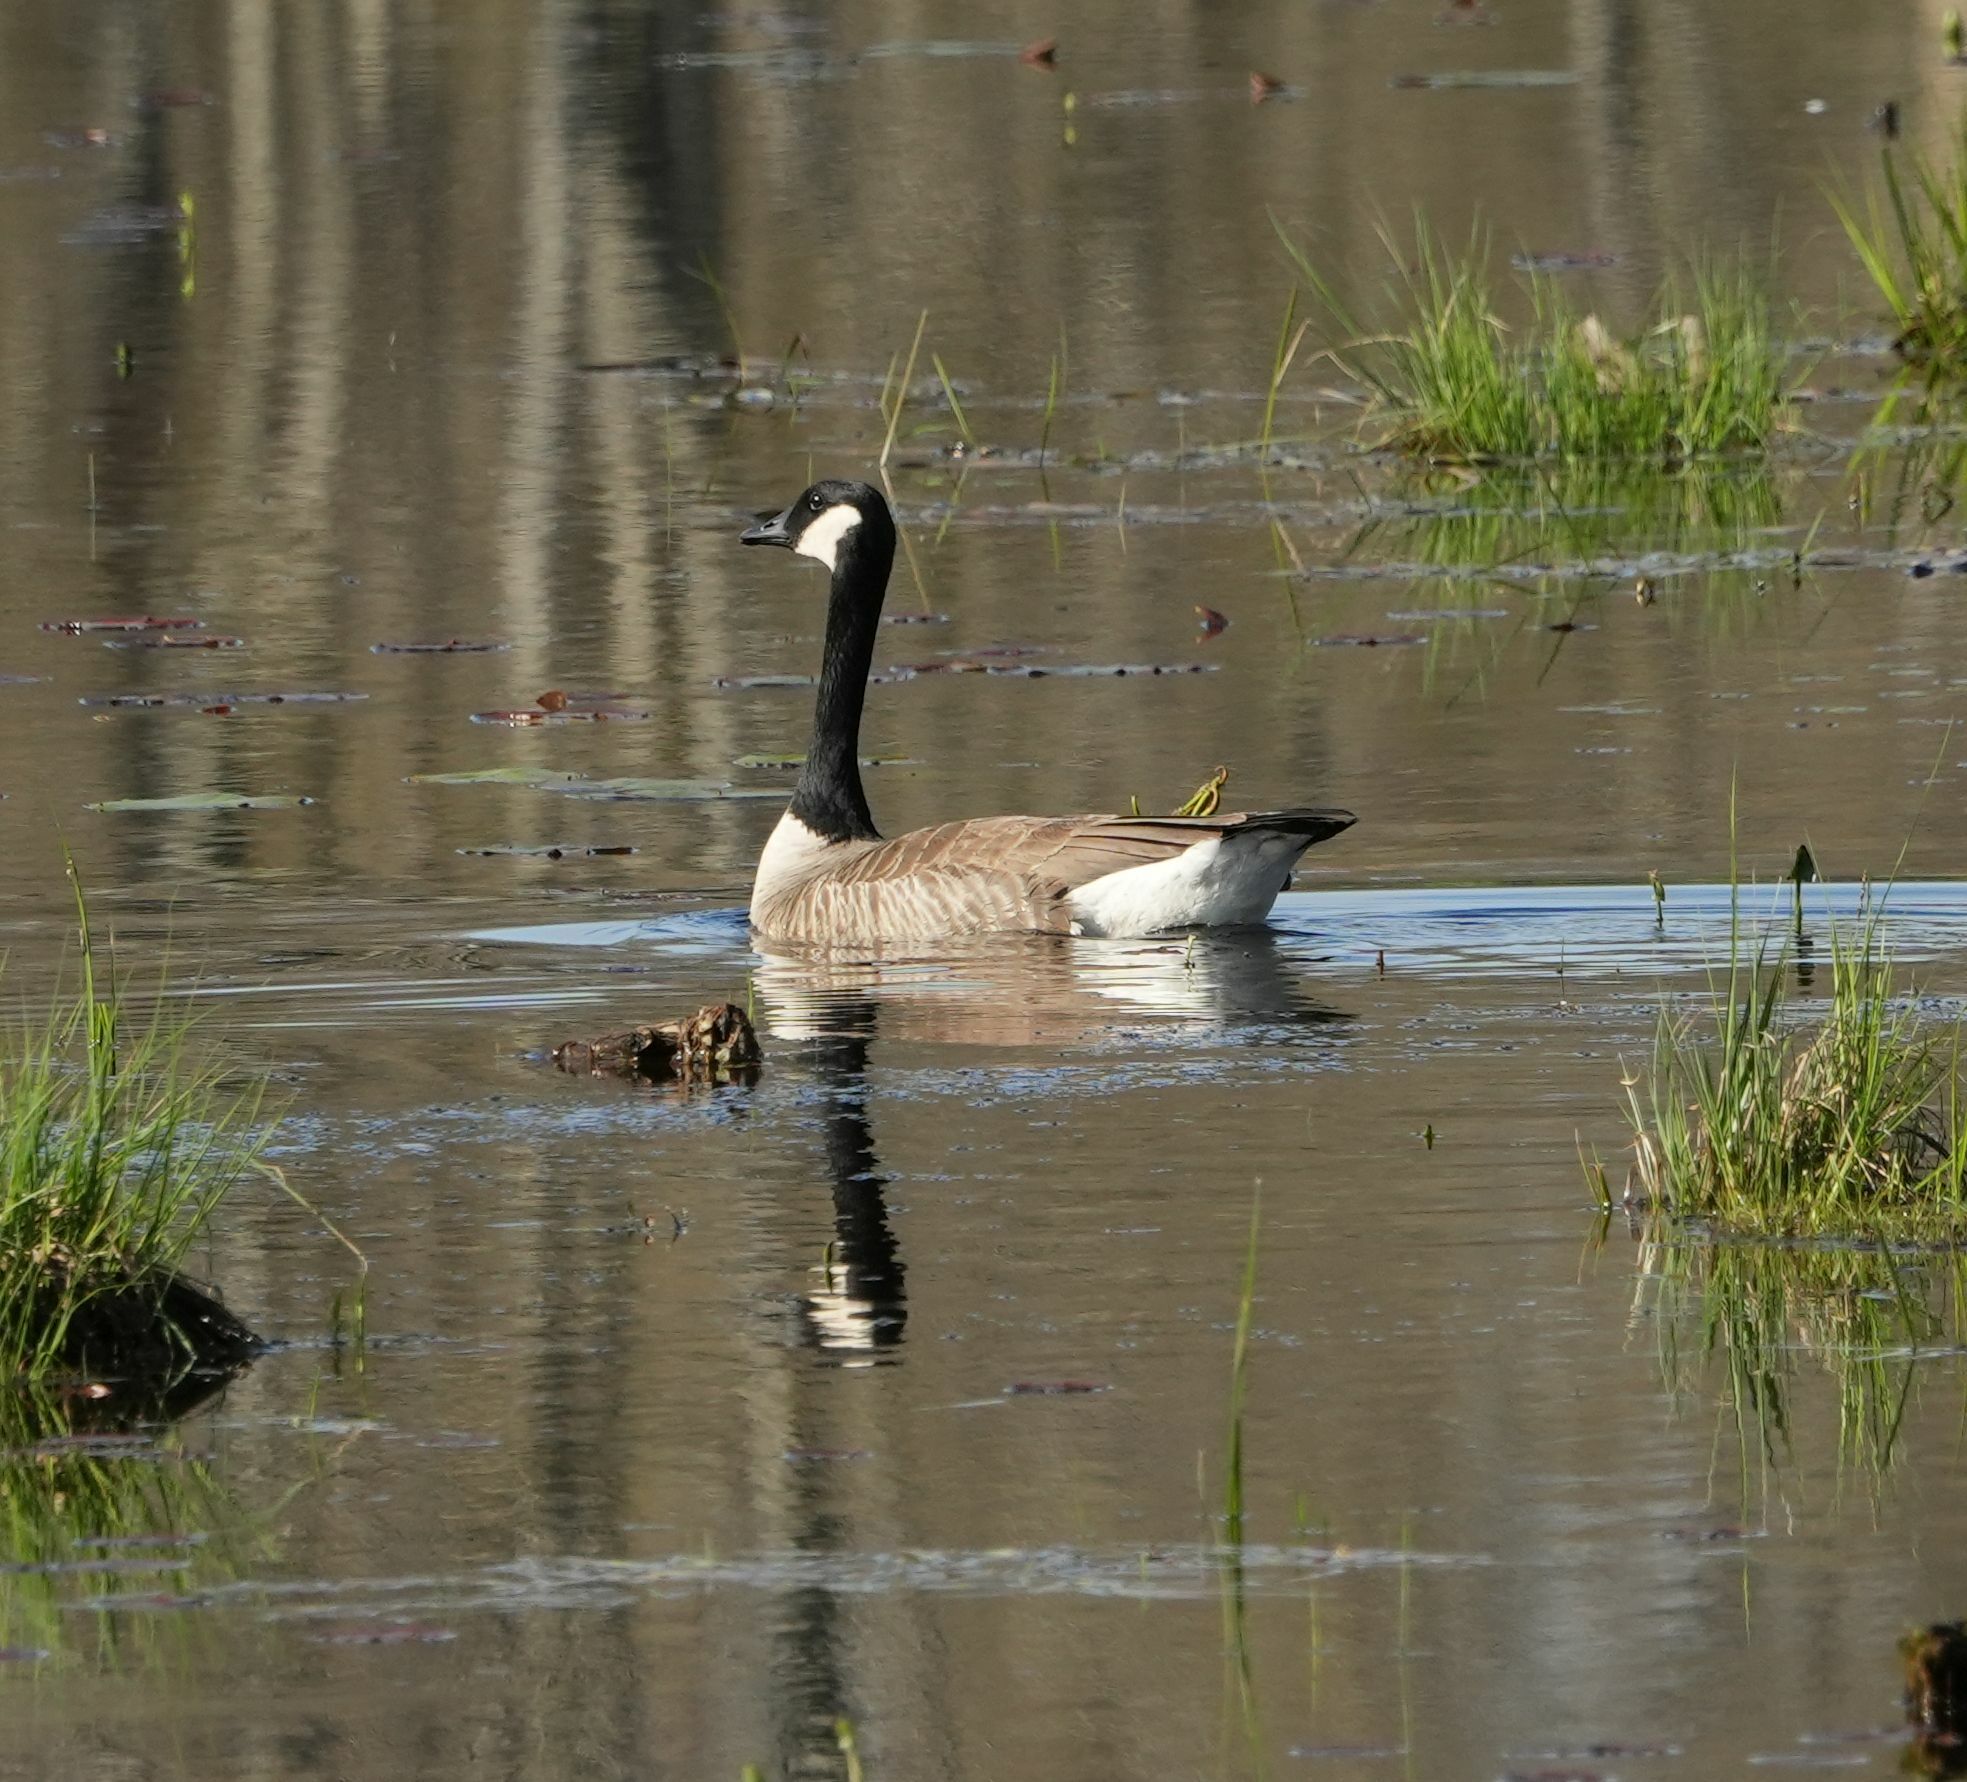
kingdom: Animalia
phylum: Chordata
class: Aves
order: Anseriformes
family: Anatidae
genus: Branta
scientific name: Branta canadensis
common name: Canada goose
